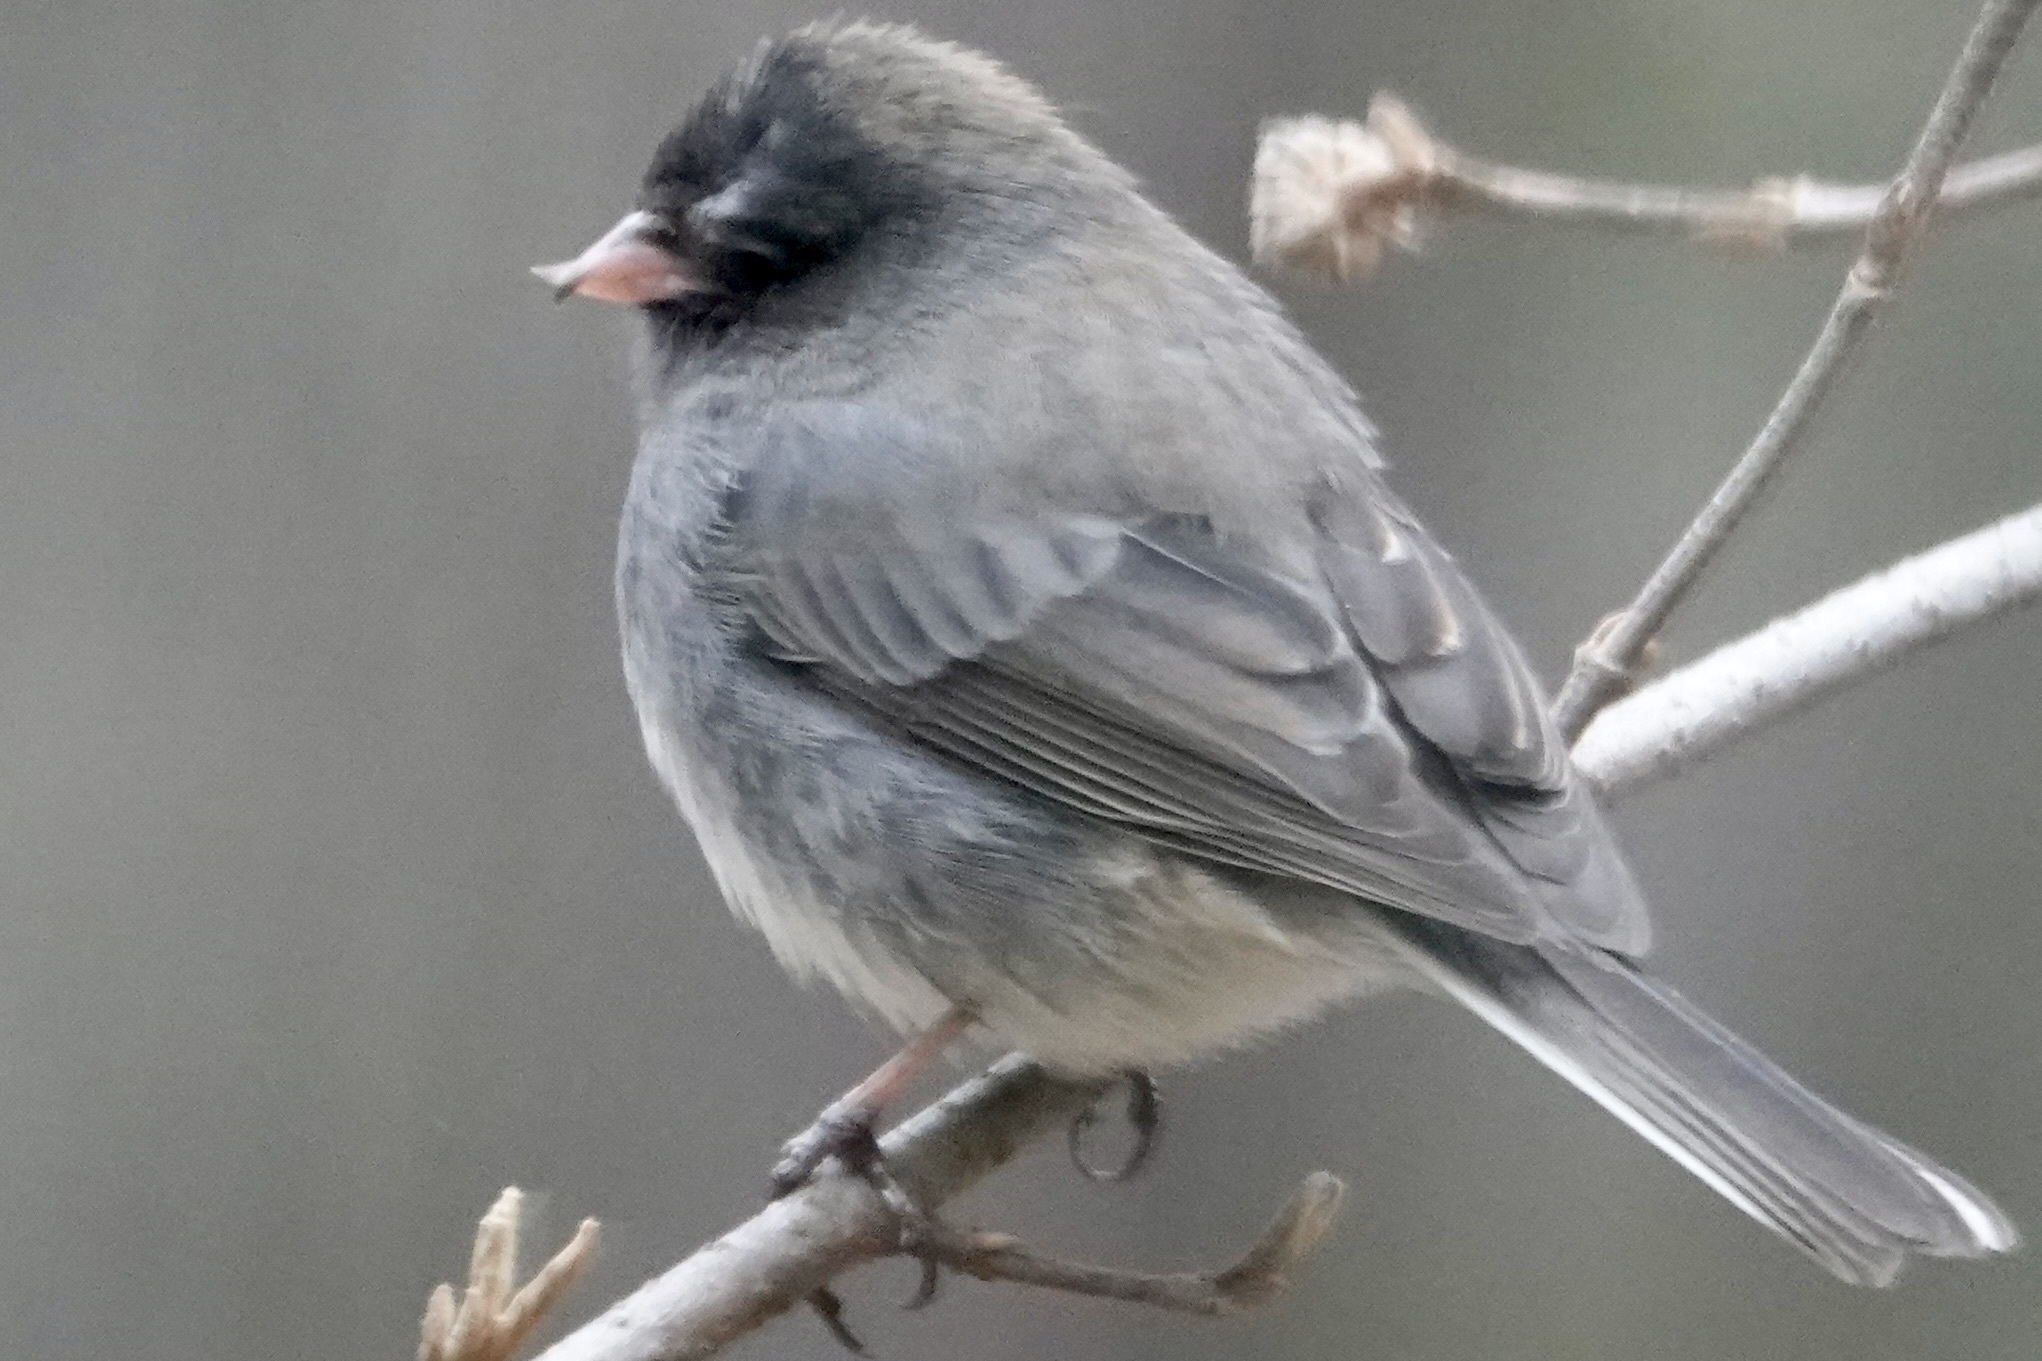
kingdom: Animalia
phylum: Chordata
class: Aves
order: Passeriformes
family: Passerellidae
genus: Junco
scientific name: Junco hyemalis
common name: Dark-eyed junco
